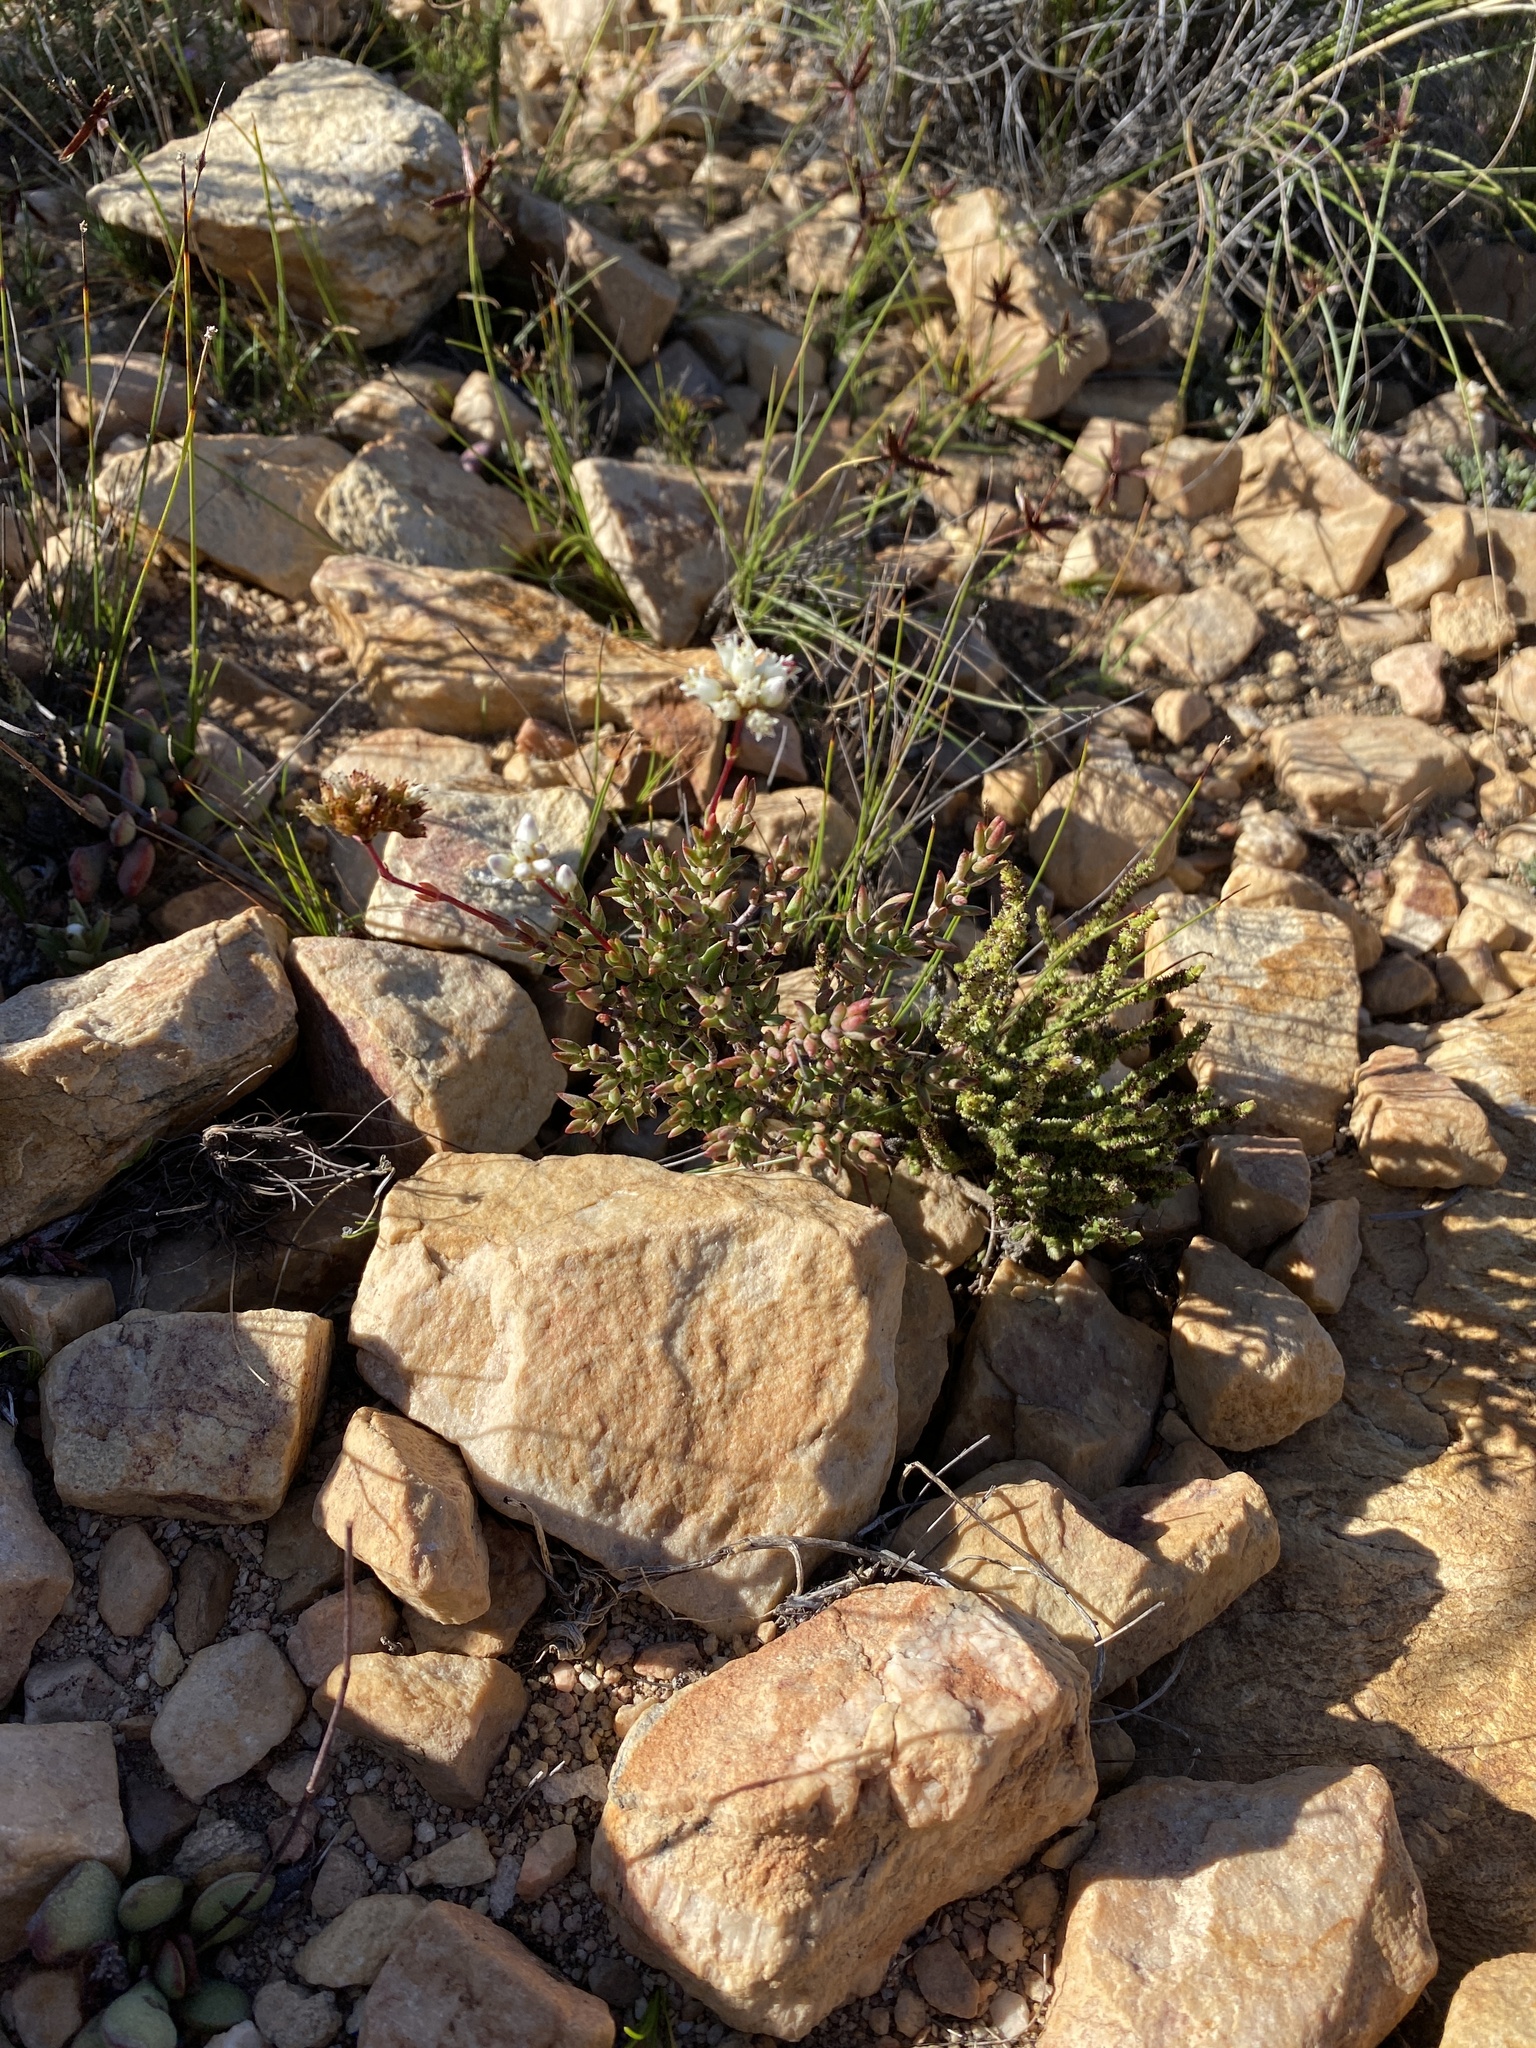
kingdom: Plantae
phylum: Tracheophyta
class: Magnoliopsida
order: Saxifragales
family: Crassulaceae
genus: Crassula
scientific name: Crassula biplanata
